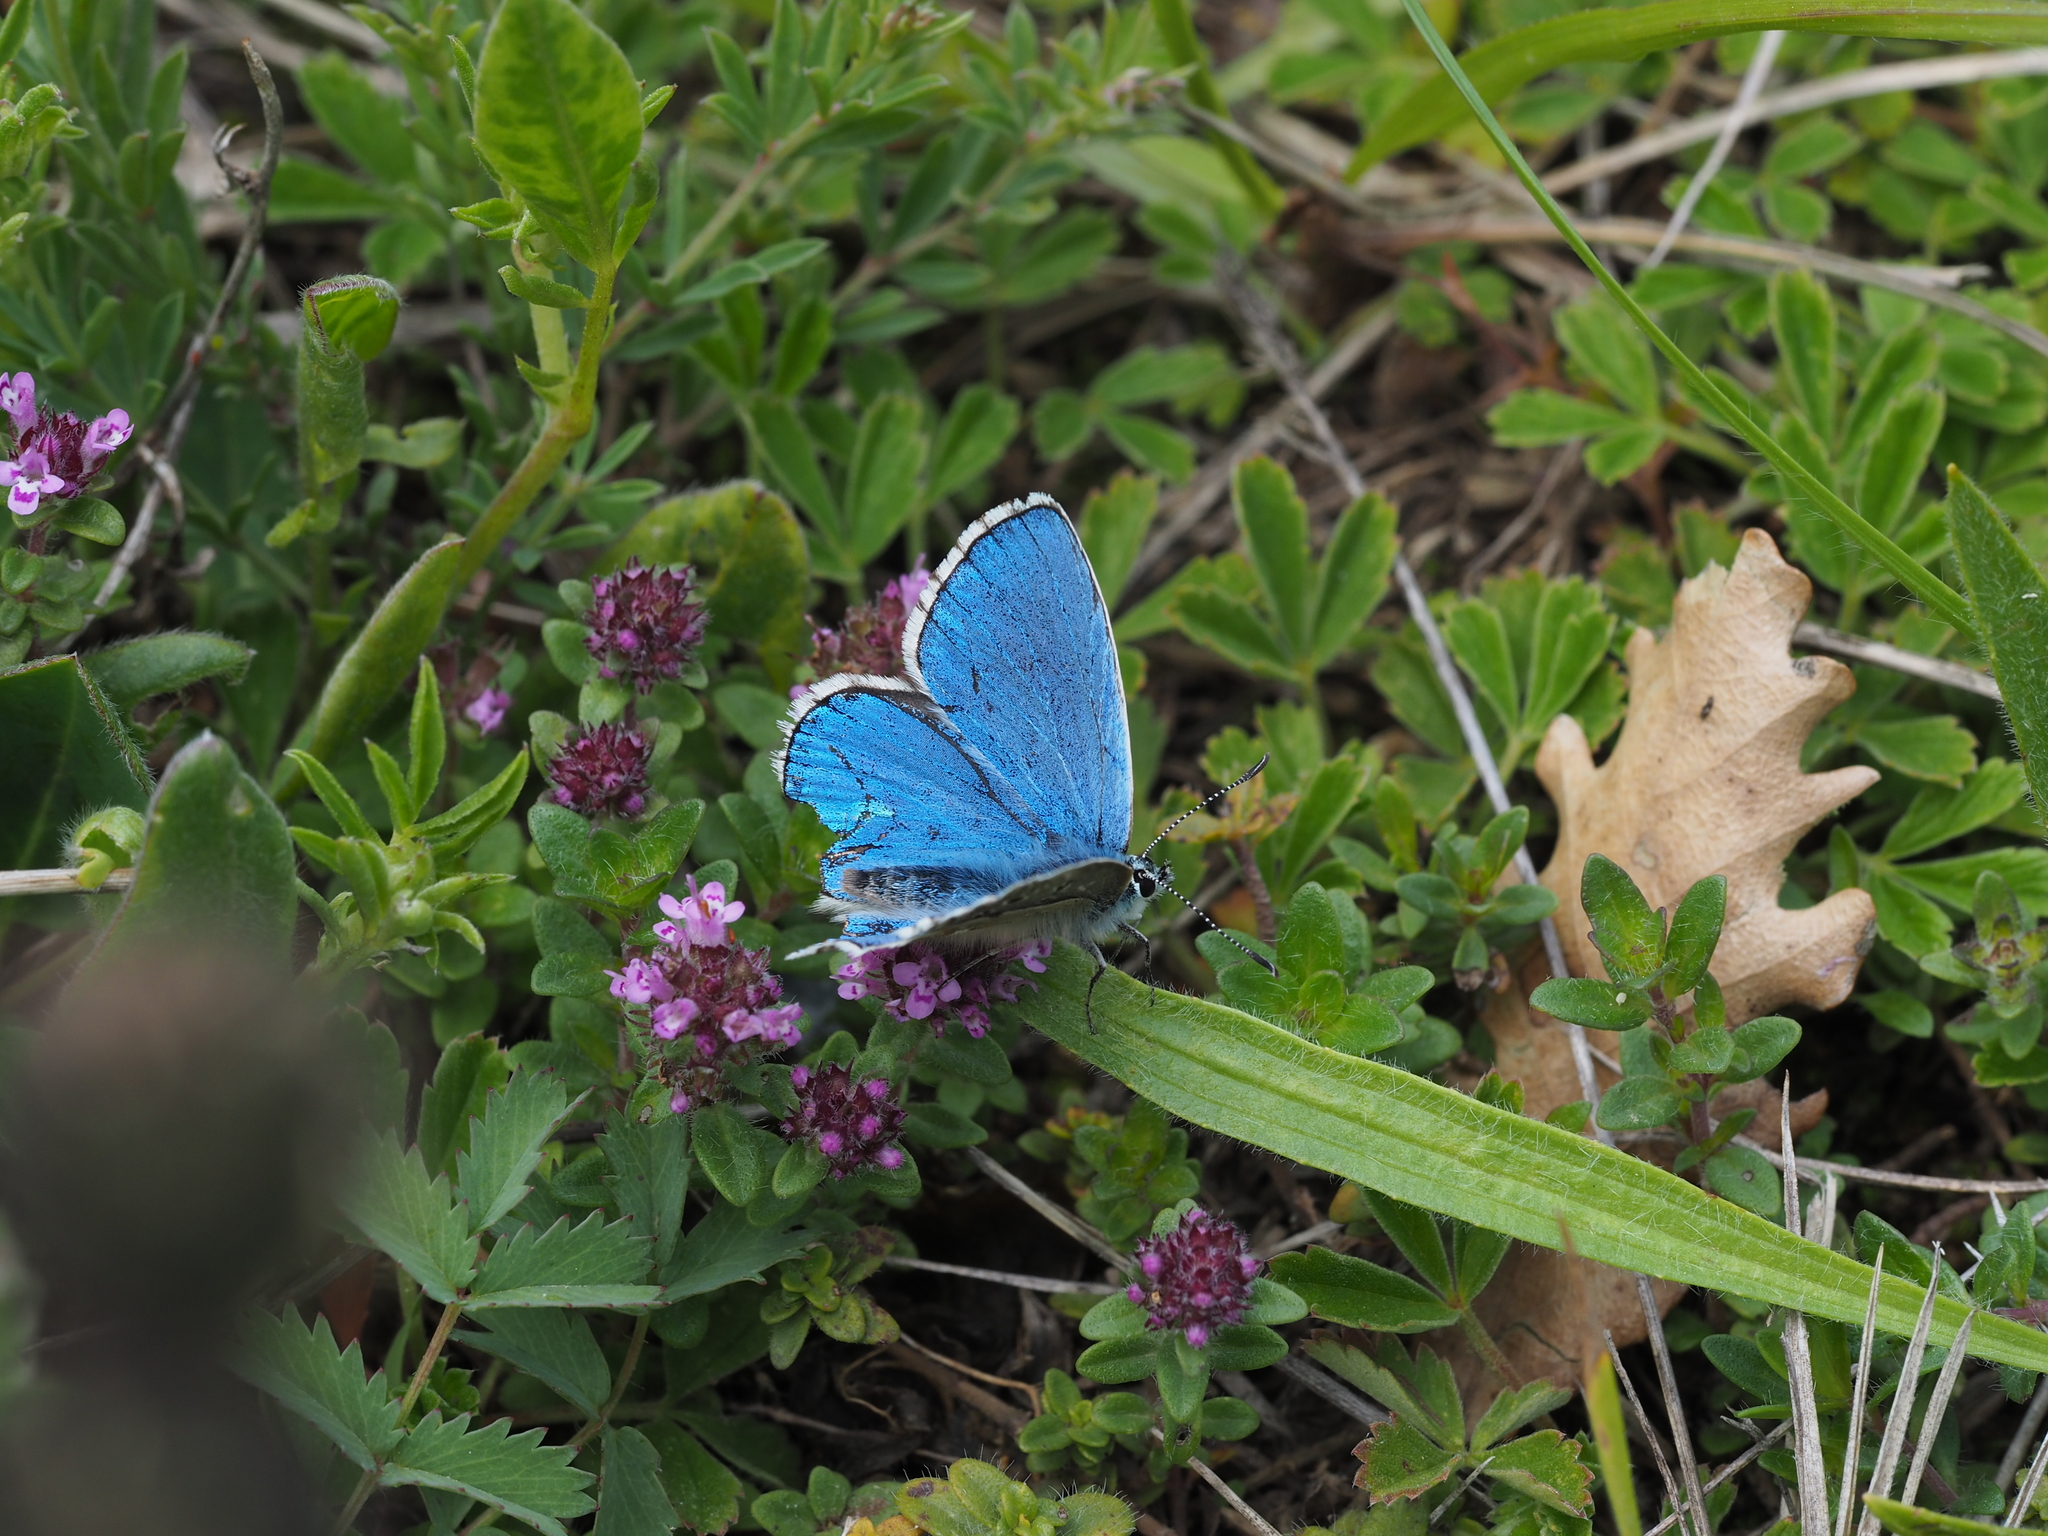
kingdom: Animalia
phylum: Arthropoda
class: Insecta
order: Lepidoptera
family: Lycaenidae
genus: Lysandra
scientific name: Lysandra bellargus
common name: Adonis blue
